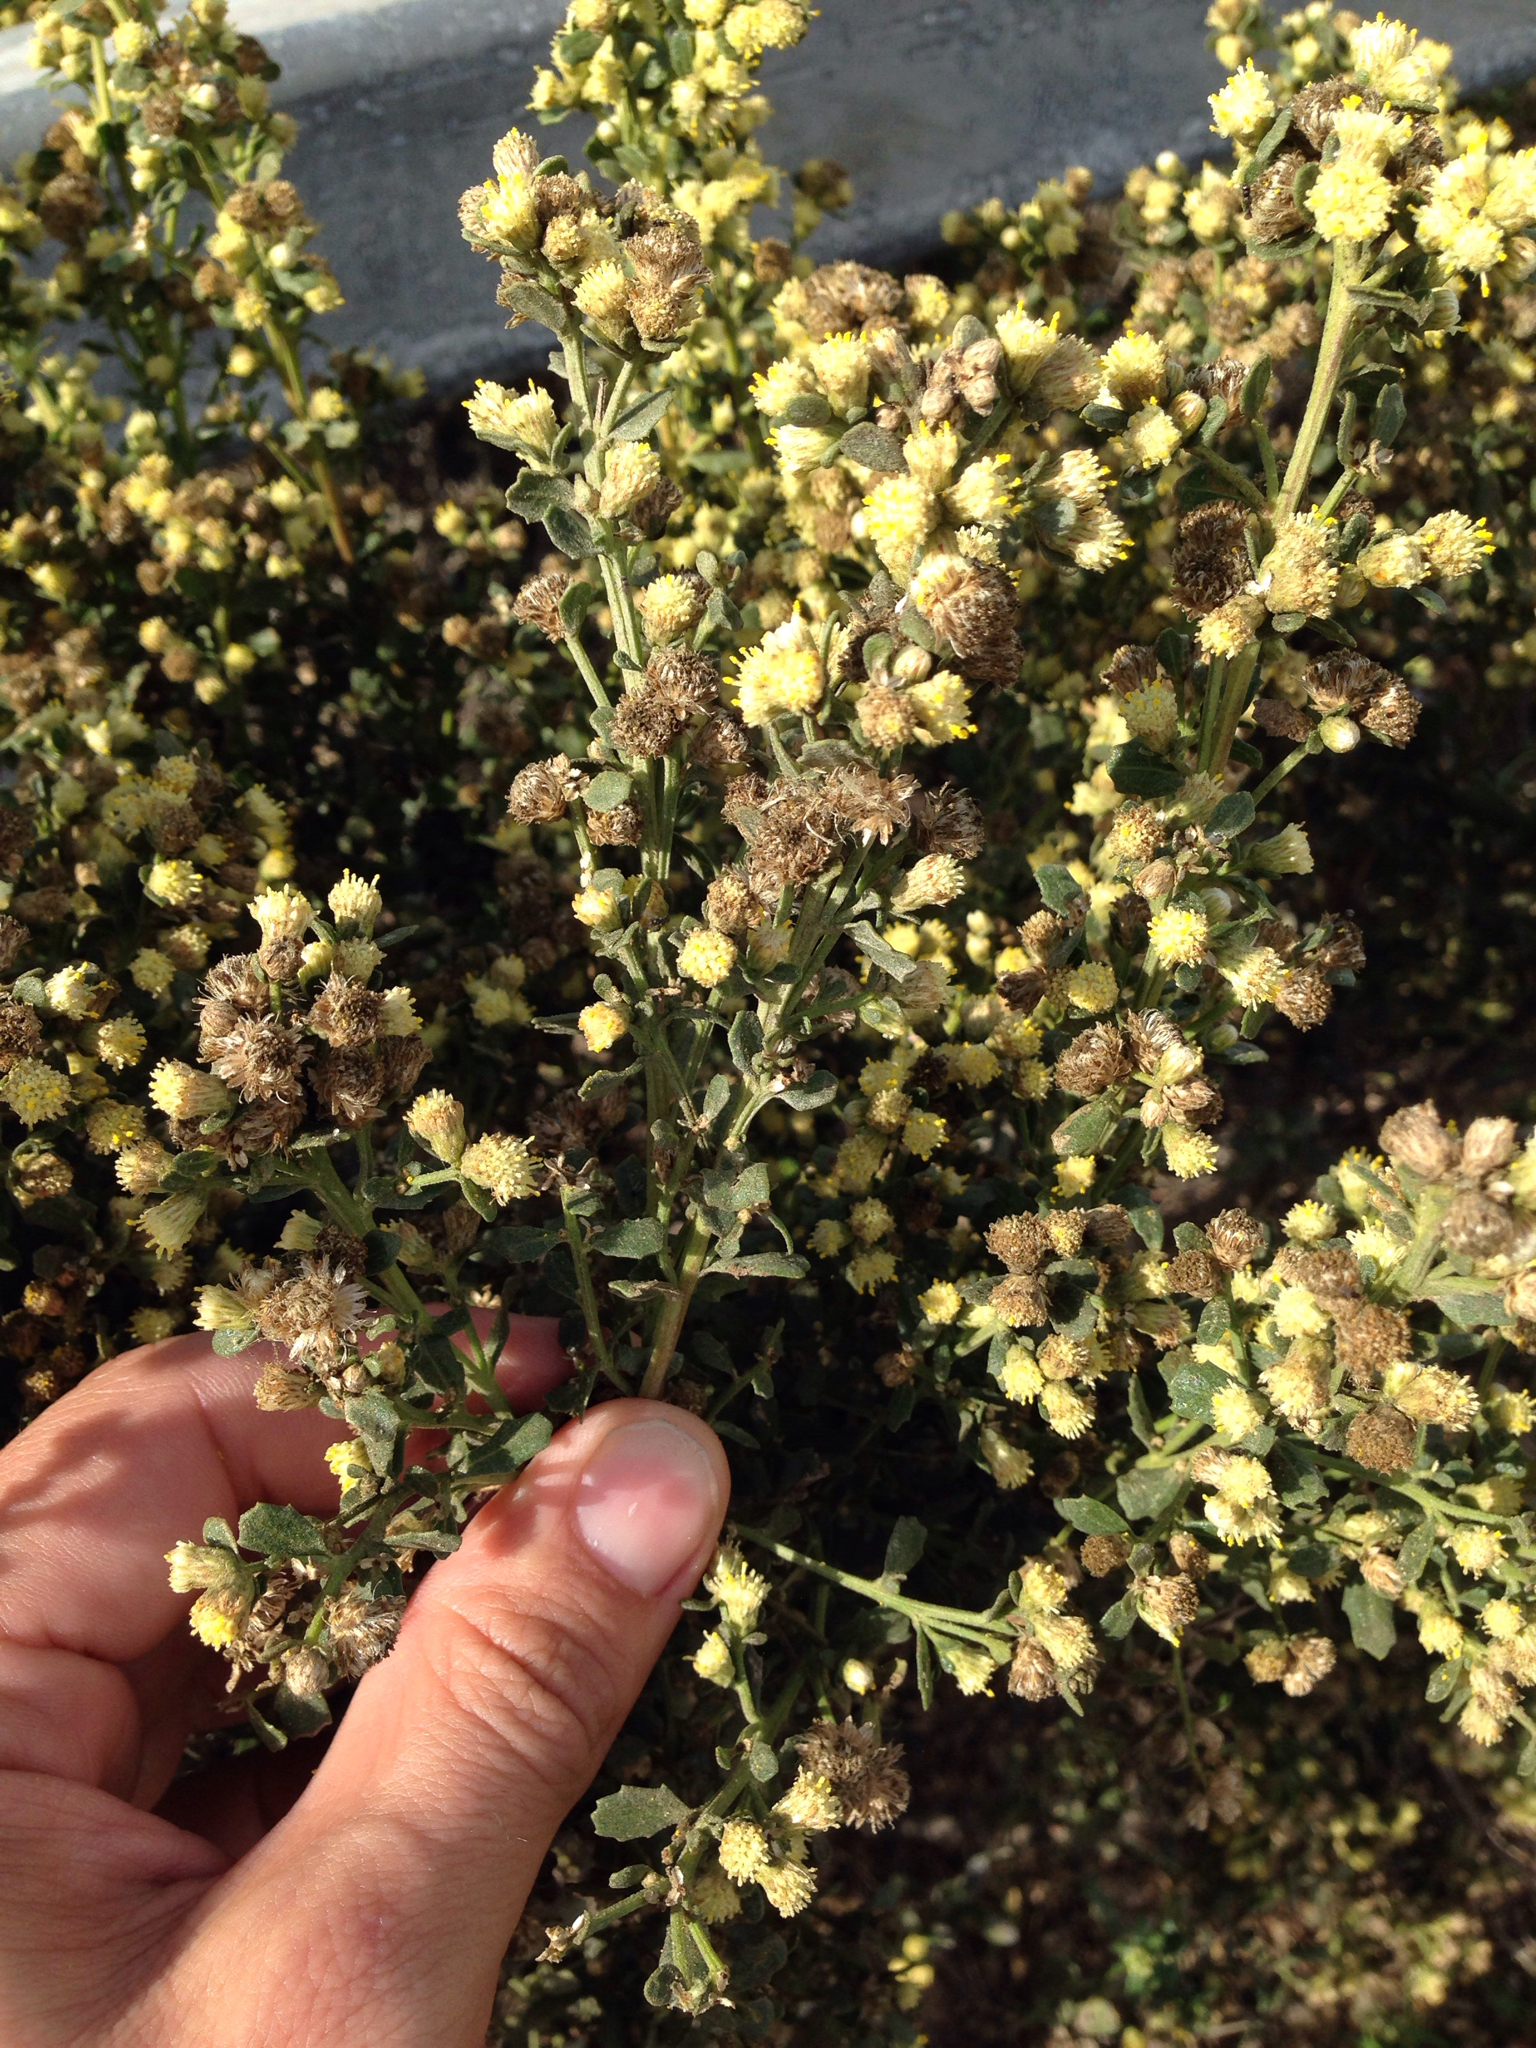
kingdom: Plantae
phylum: Tracheophyta
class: Magnoliopsida
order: Asterales
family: Asteraceae
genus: Baccharis
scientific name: Baccharis pilularis
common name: Coyotebrush
